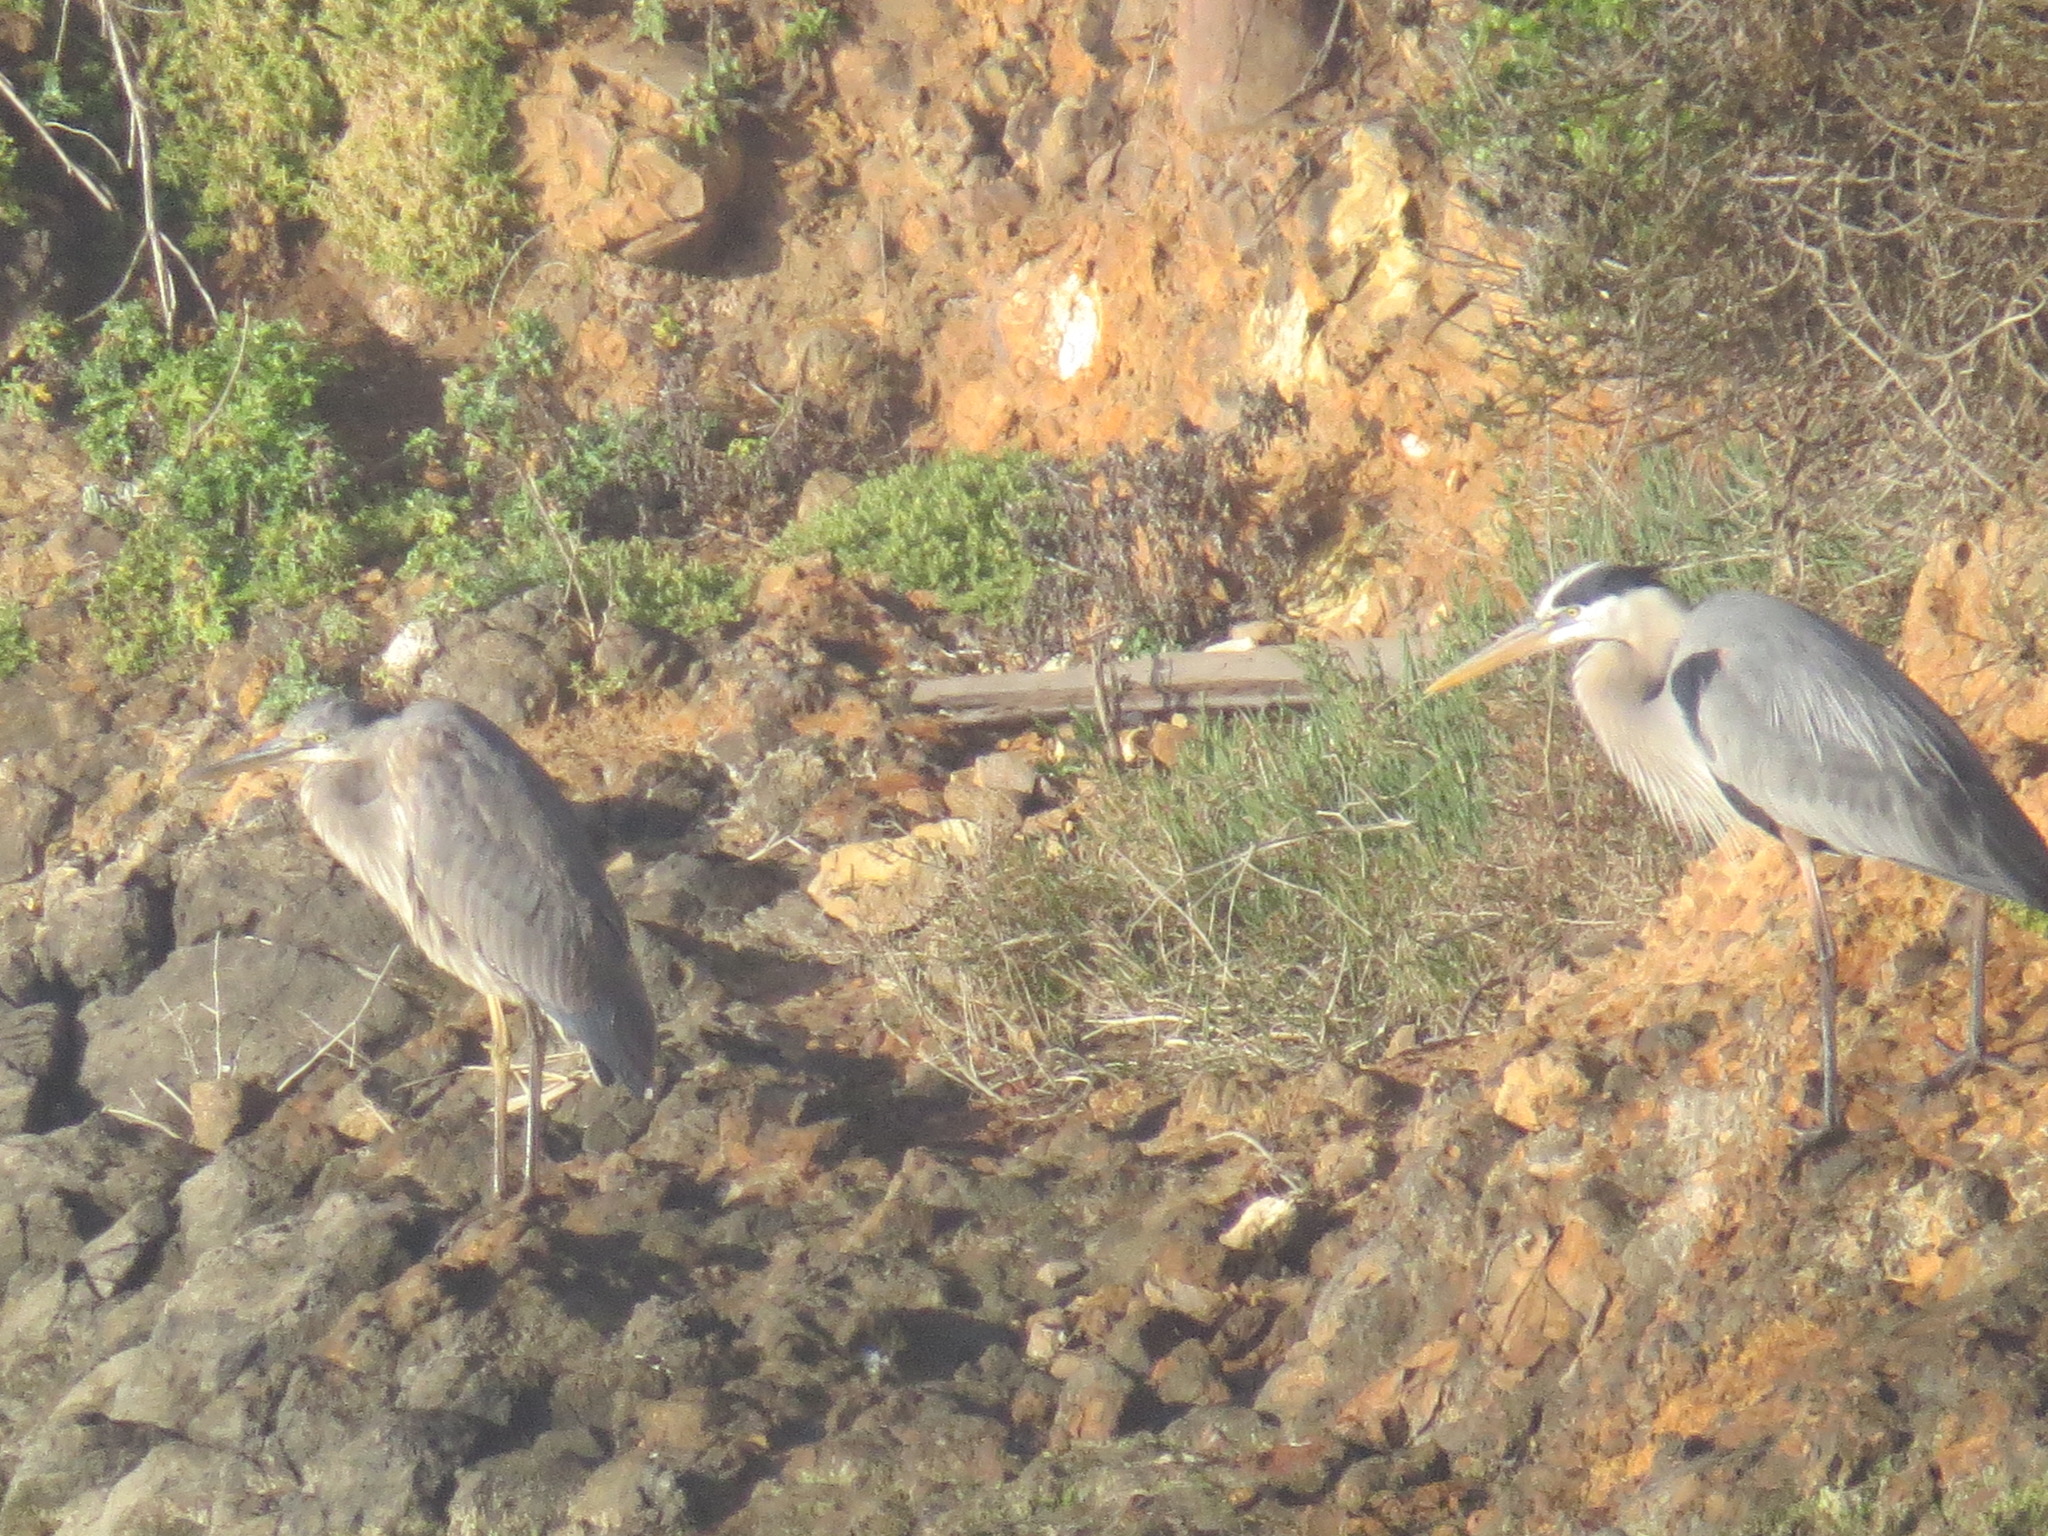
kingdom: Animalia
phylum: Chordata
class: Aves
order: Pelecaniformes
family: Ardeidae
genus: Ardea
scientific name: Ardea herodias
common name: Great blue heron
